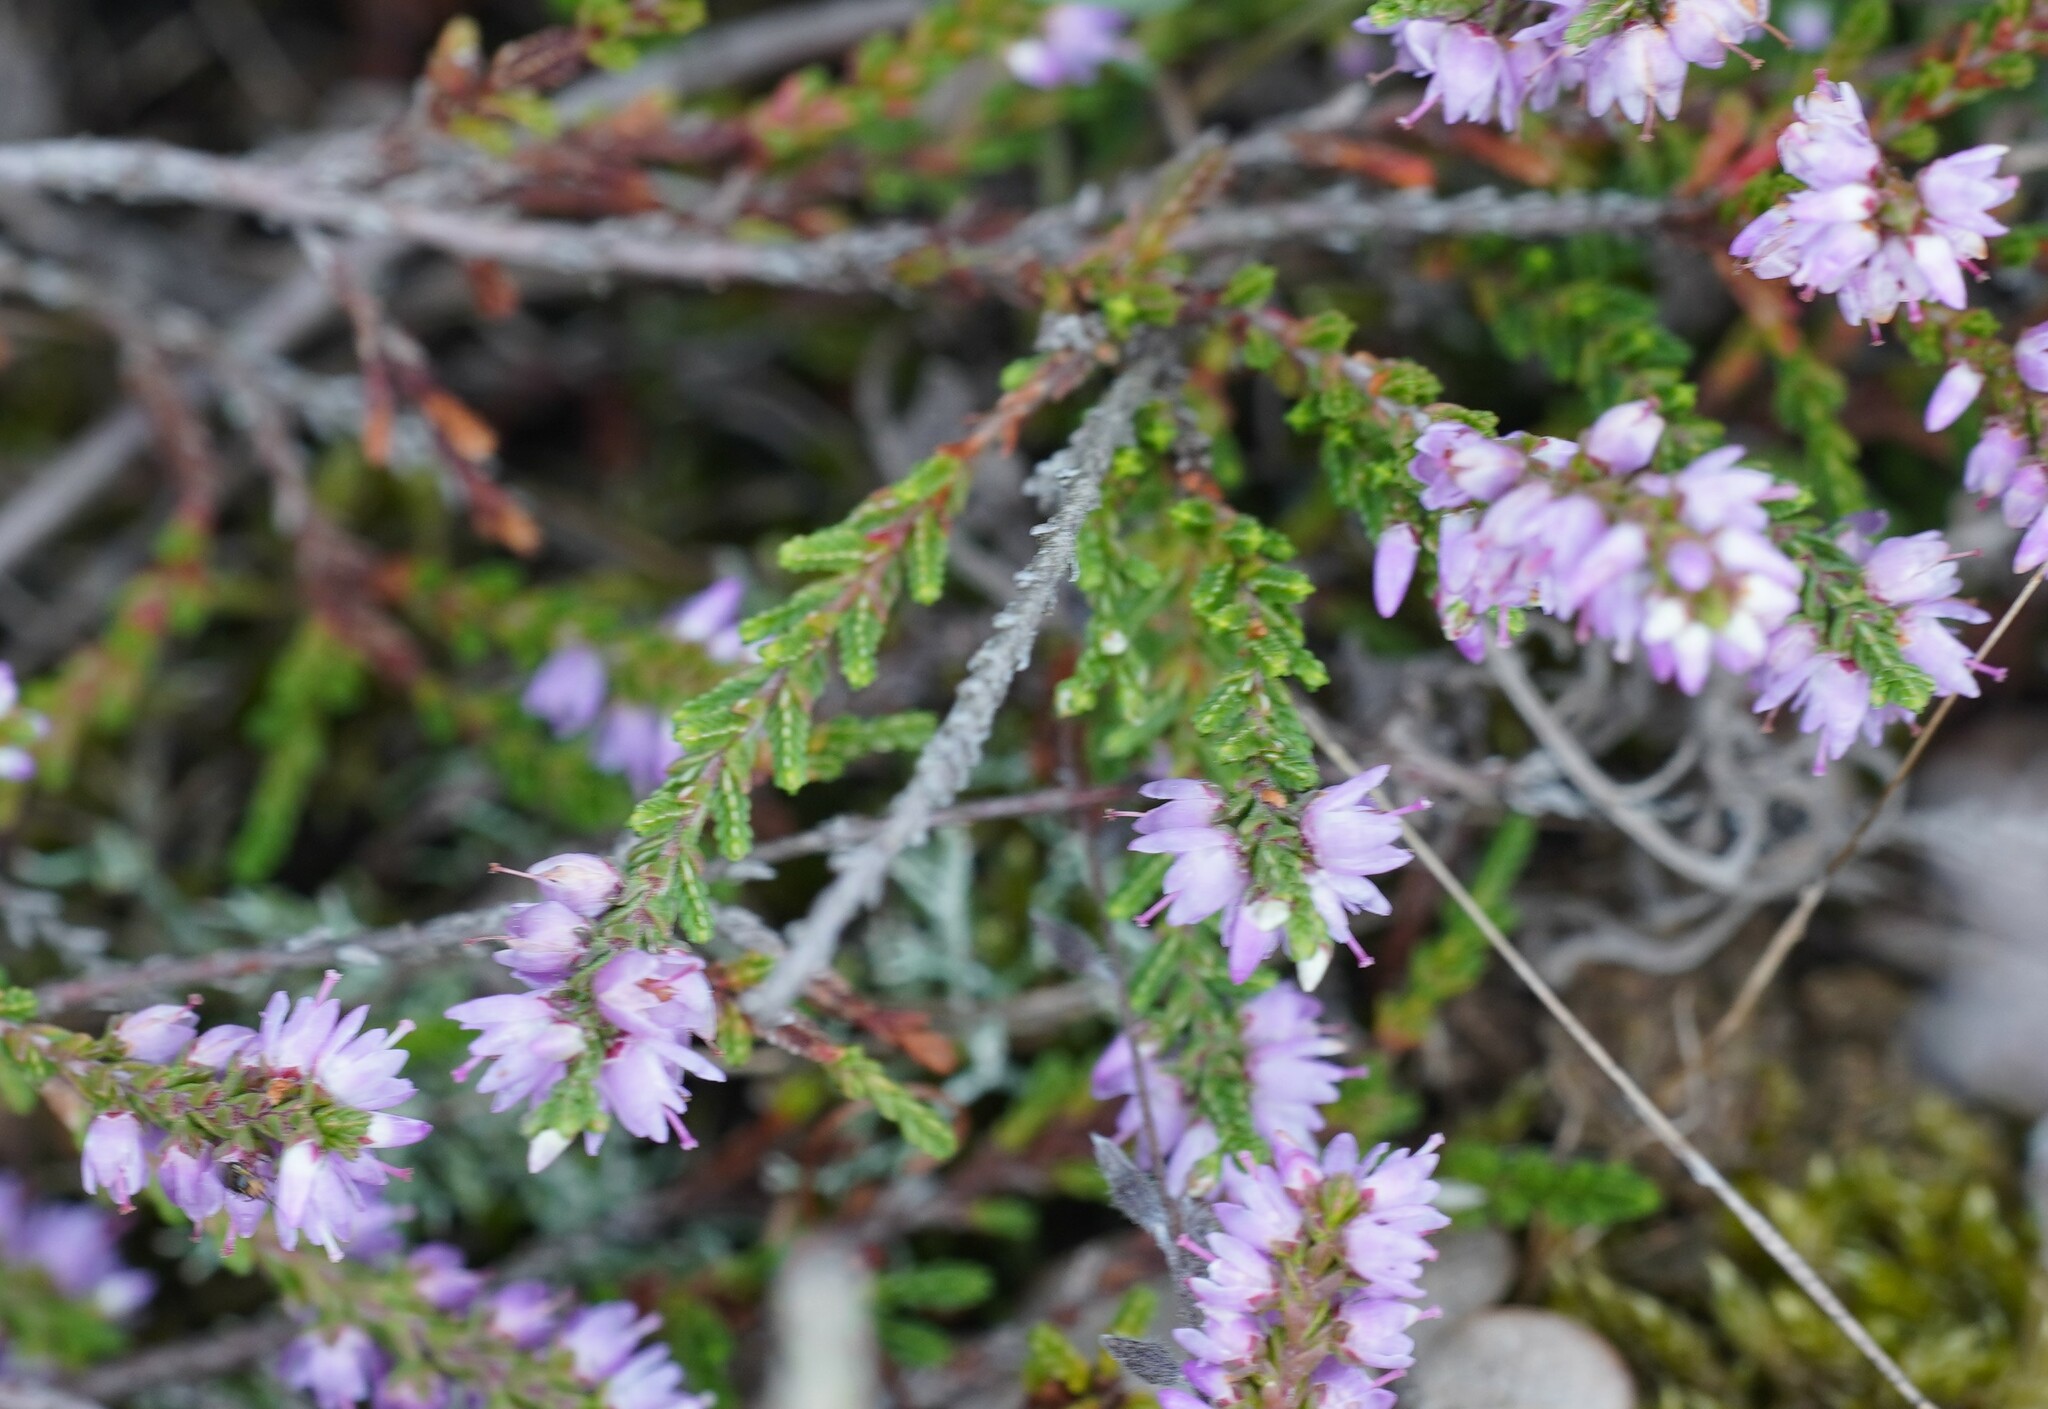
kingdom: Plantae
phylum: Tracheophyta
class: Magnoliopsida
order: Ericales
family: Ericaceae
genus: Calluna
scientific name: Calluna vulgaris
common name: Heather
